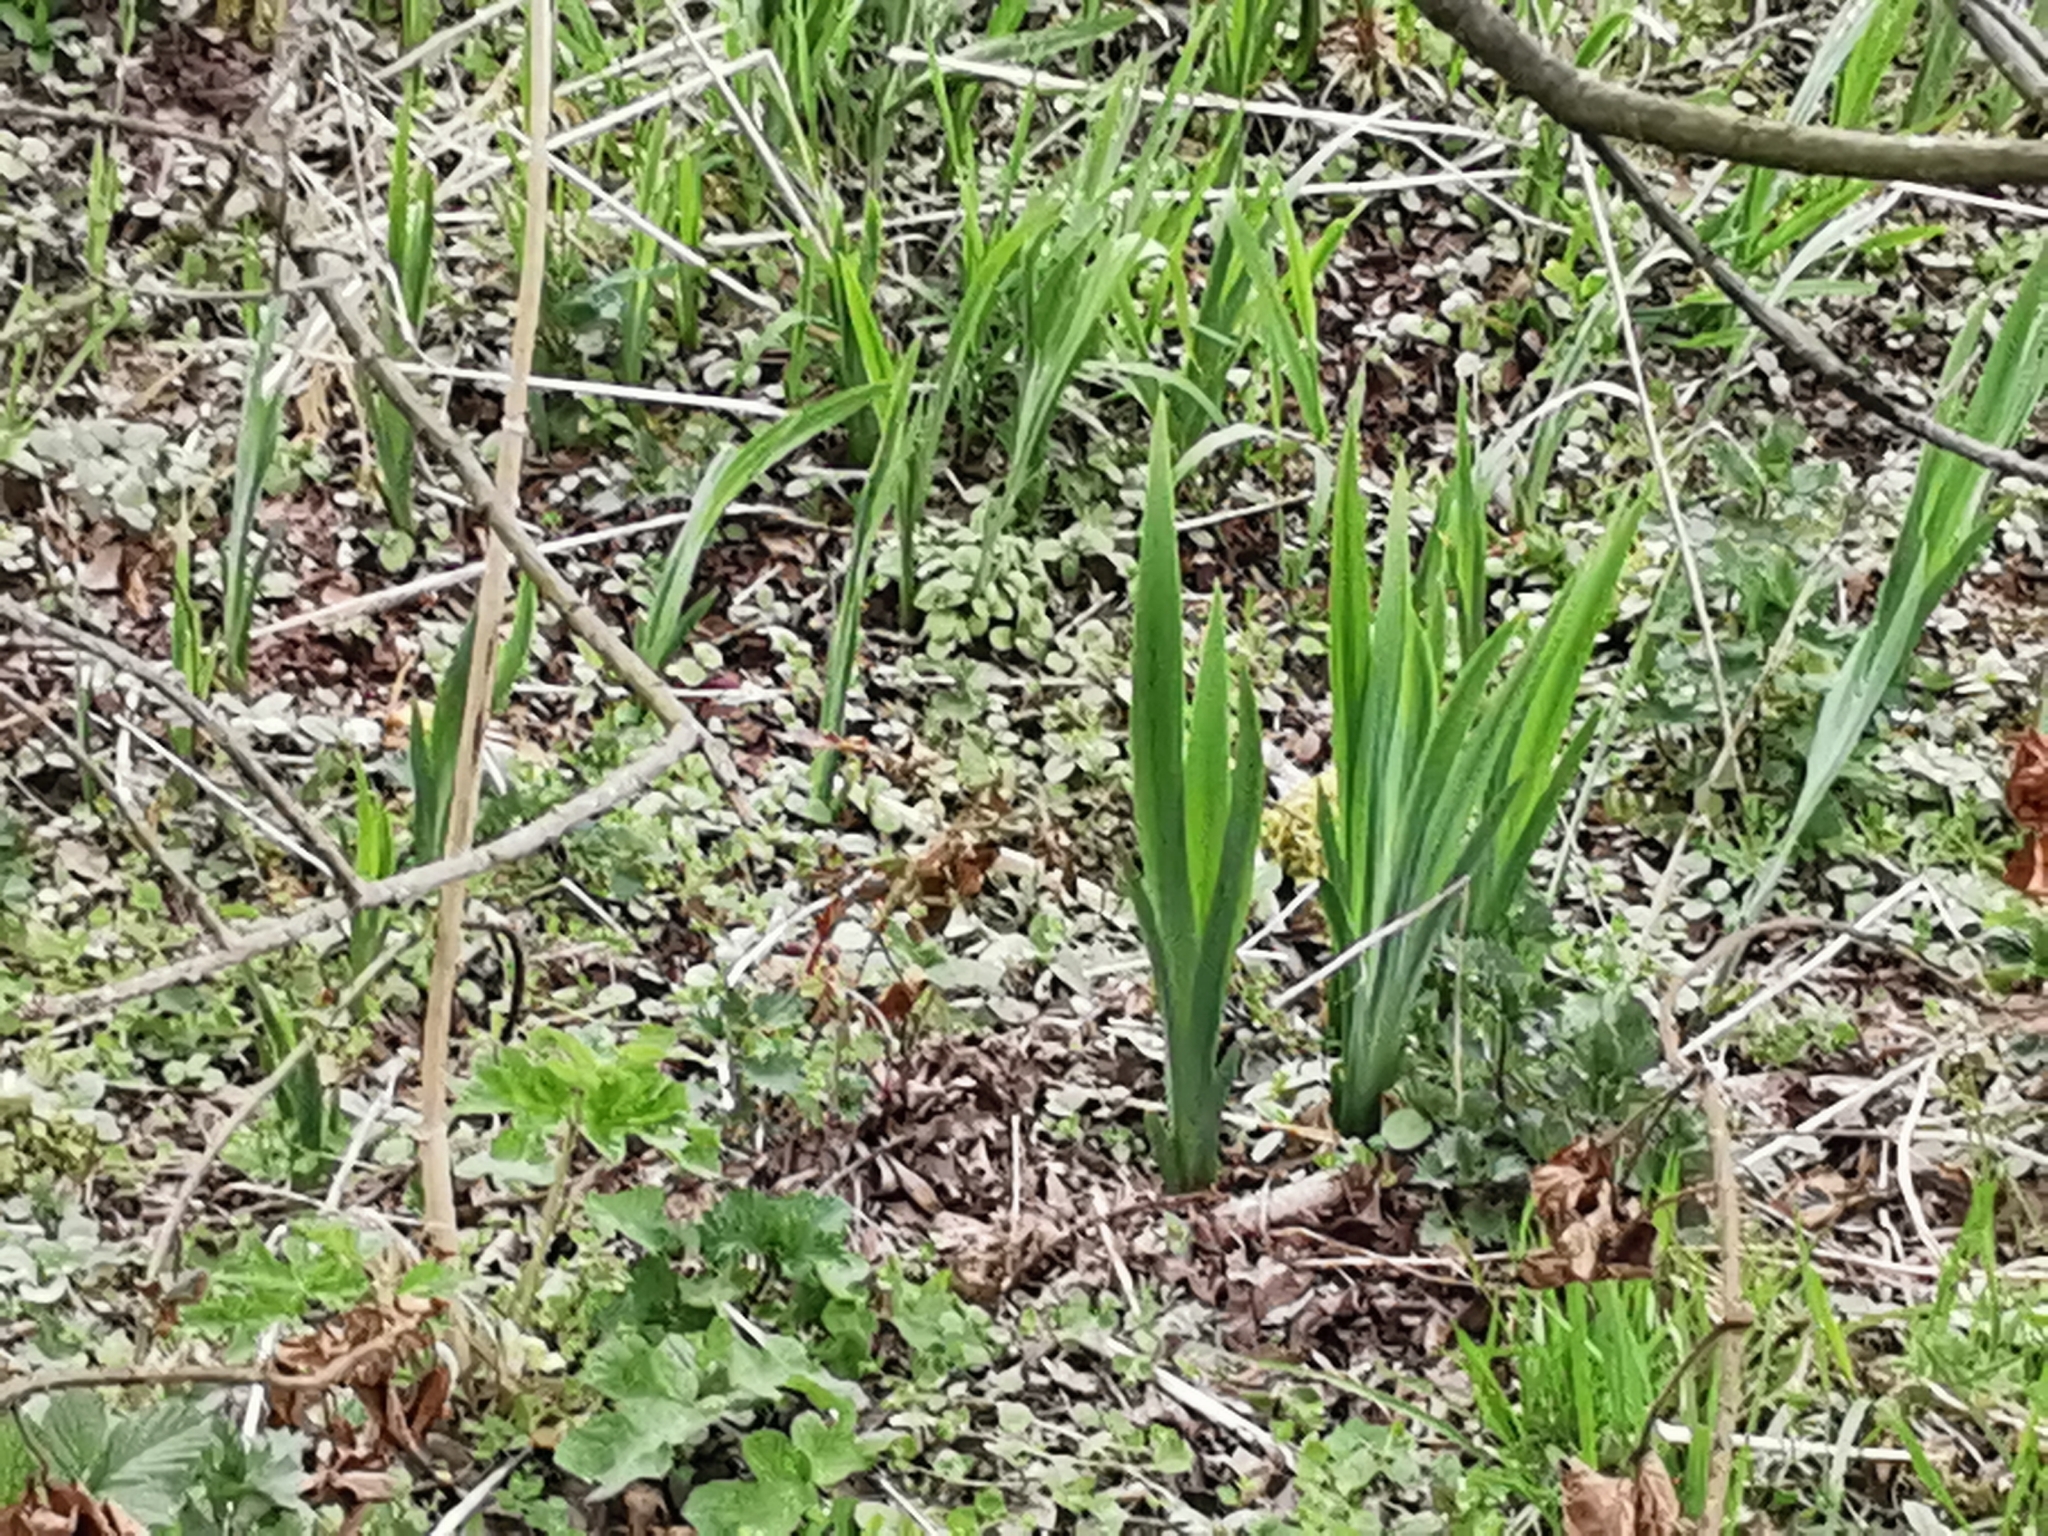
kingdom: Plantae
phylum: Tracheophyta
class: Liliopsida
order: Asparagales
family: Iridaceae
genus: Iris
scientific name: Iris pseudacorus
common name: Yellow flag
